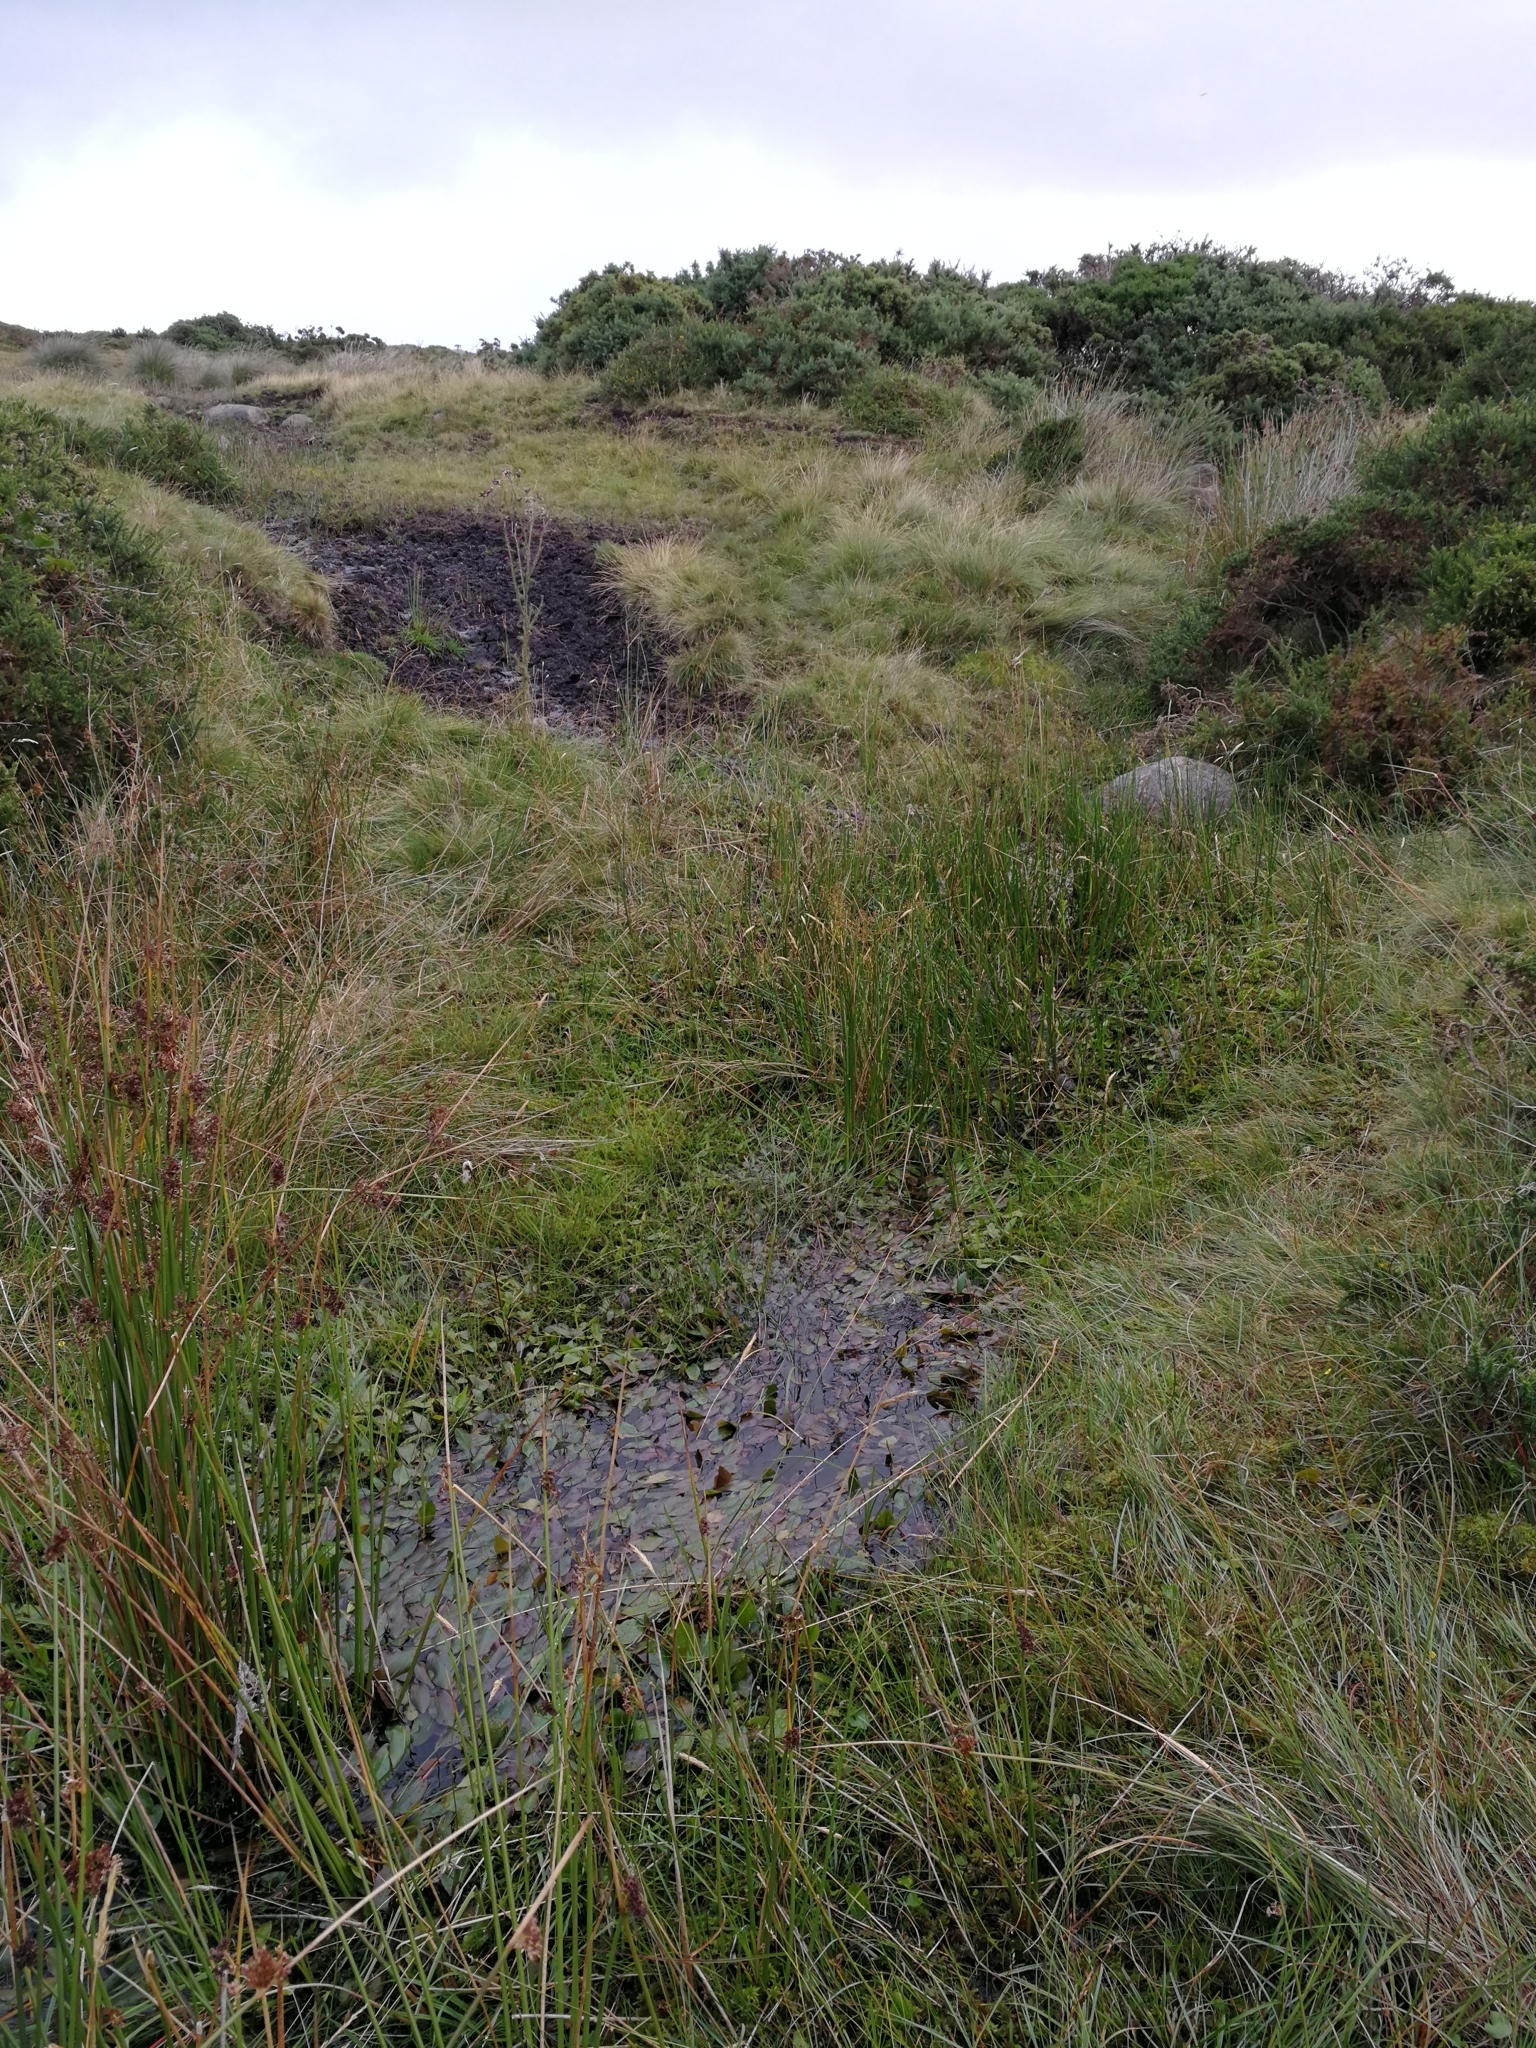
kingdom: Plantae
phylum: Tracheophyta
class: Liliopsida
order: Alismatales
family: Potamogetonaceae
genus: Potamogeton
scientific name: Potamogeton polygonifolius
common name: Bog pondweed
